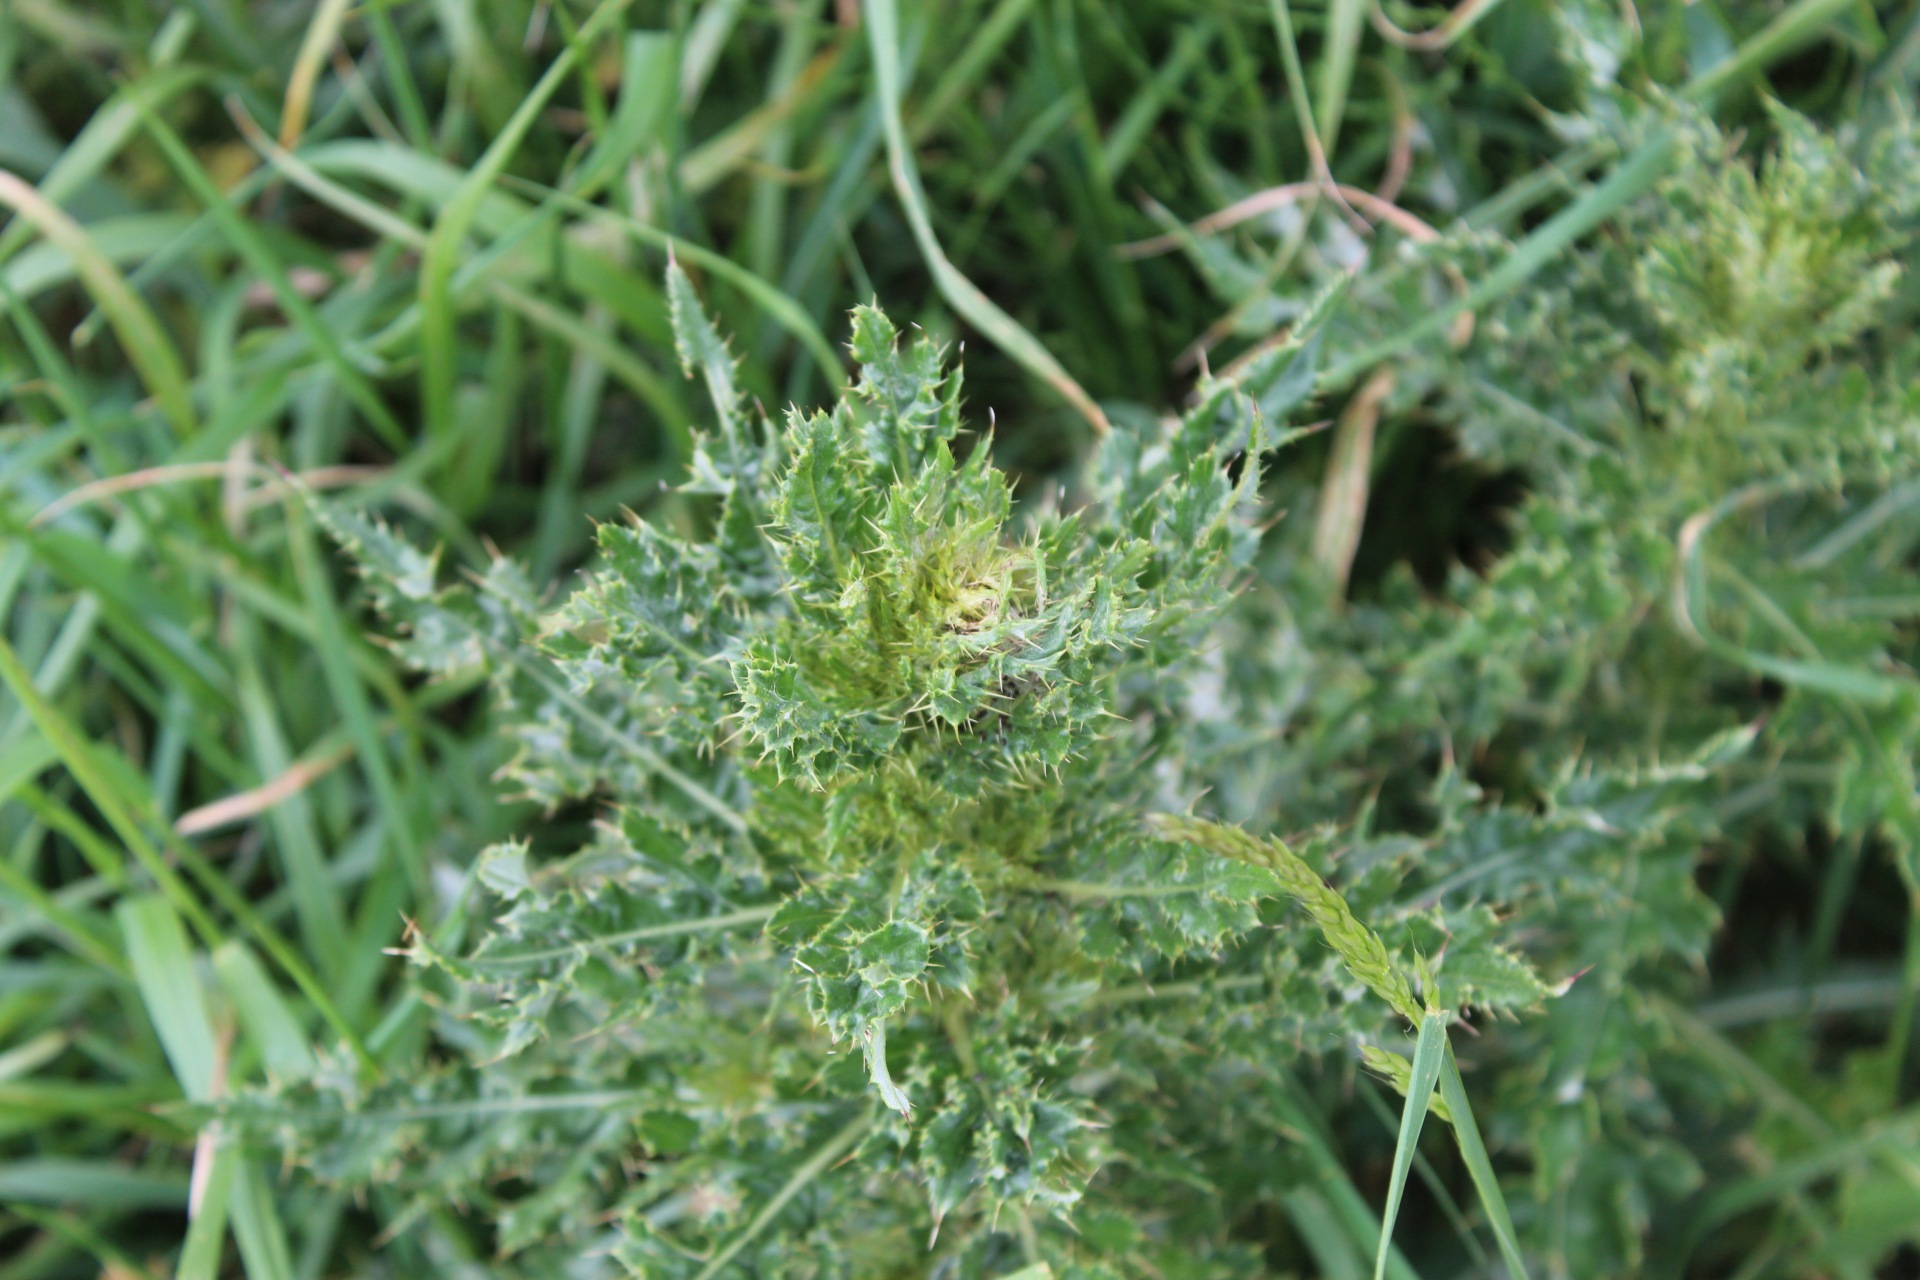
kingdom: Plantae
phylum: Tracheophyta
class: Magnoliopsida
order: Asterales
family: Asteraceae
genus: Cirsium
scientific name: Cirsium arvense
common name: Creeping thistle
